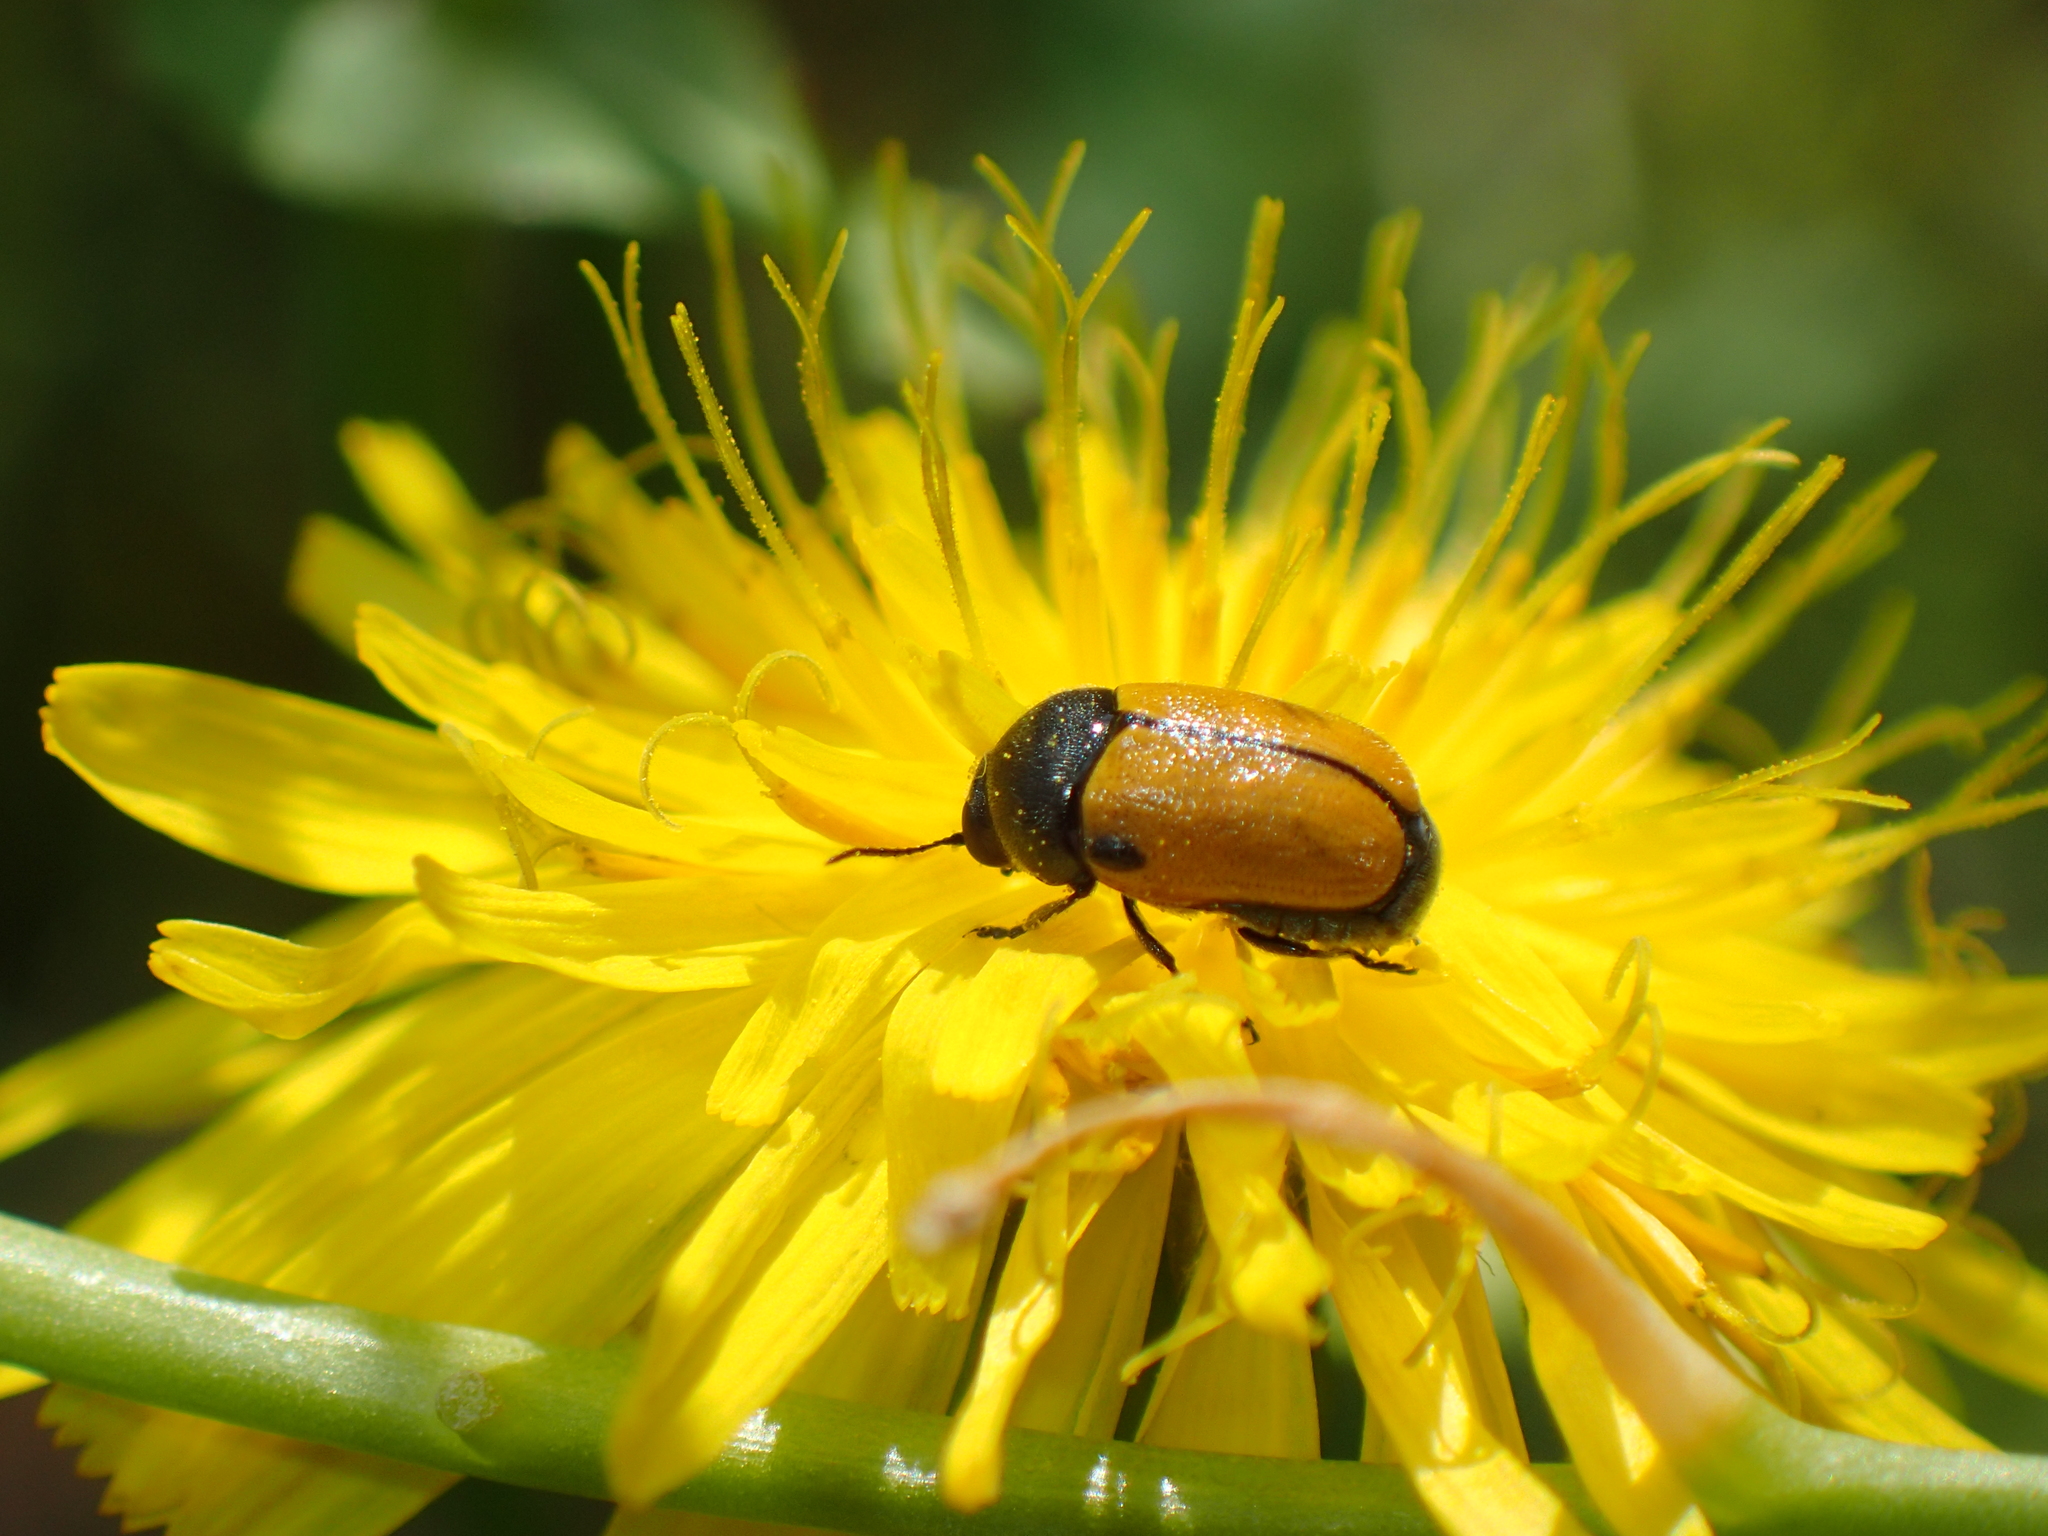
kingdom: Animalia
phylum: Arthropoda
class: Insecta
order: Coleoptera
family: Chrysomelidae
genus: Cryptocephalus
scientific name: Cryptocephalus rugicollis
